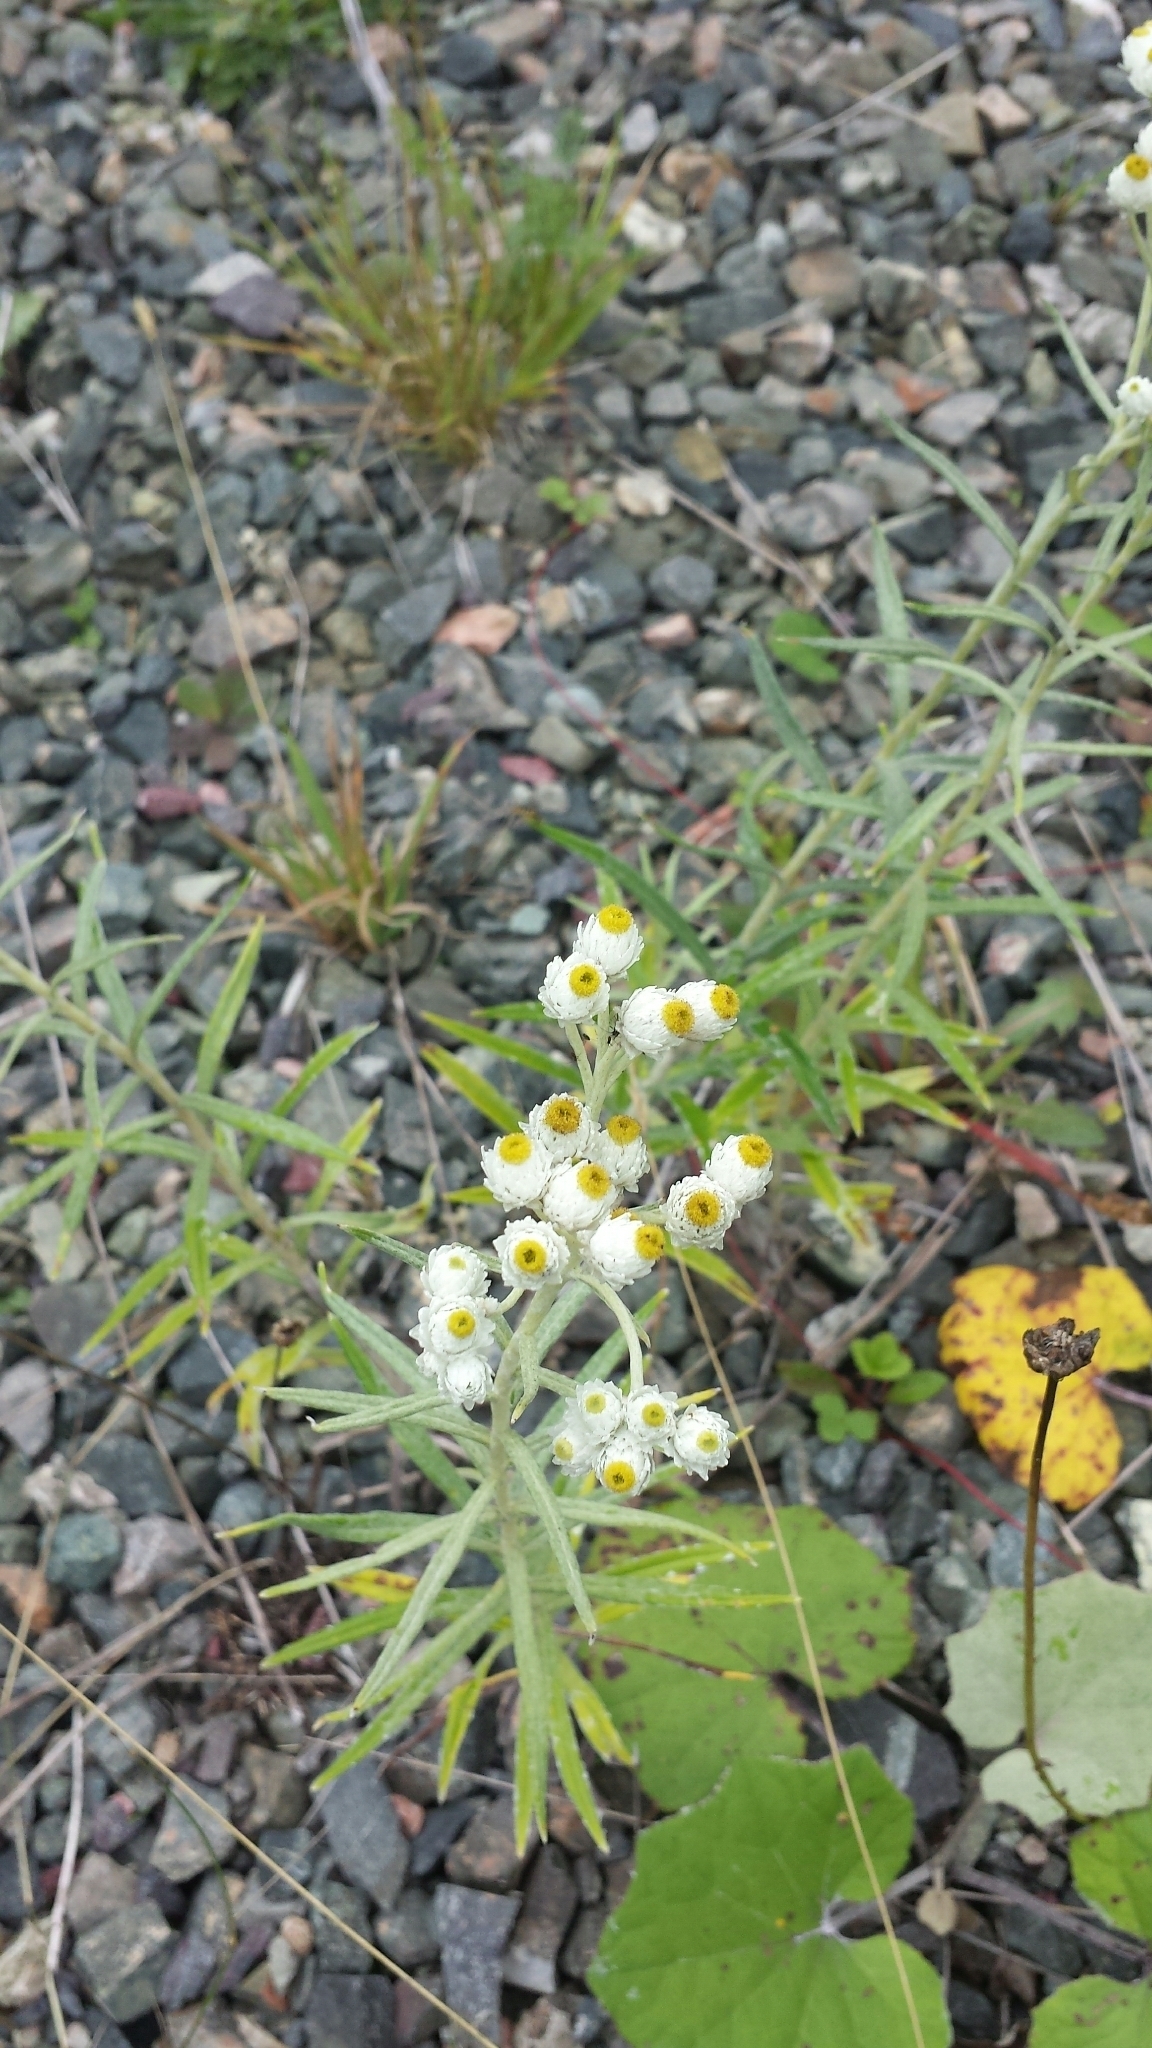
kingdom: Plantae
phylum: Tracheophyta
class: Magnoliopsida
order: Asterales
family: Asteraceae
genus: Anaphalis
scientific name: Anaphalis margaritacea
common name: Pearly everlasting
